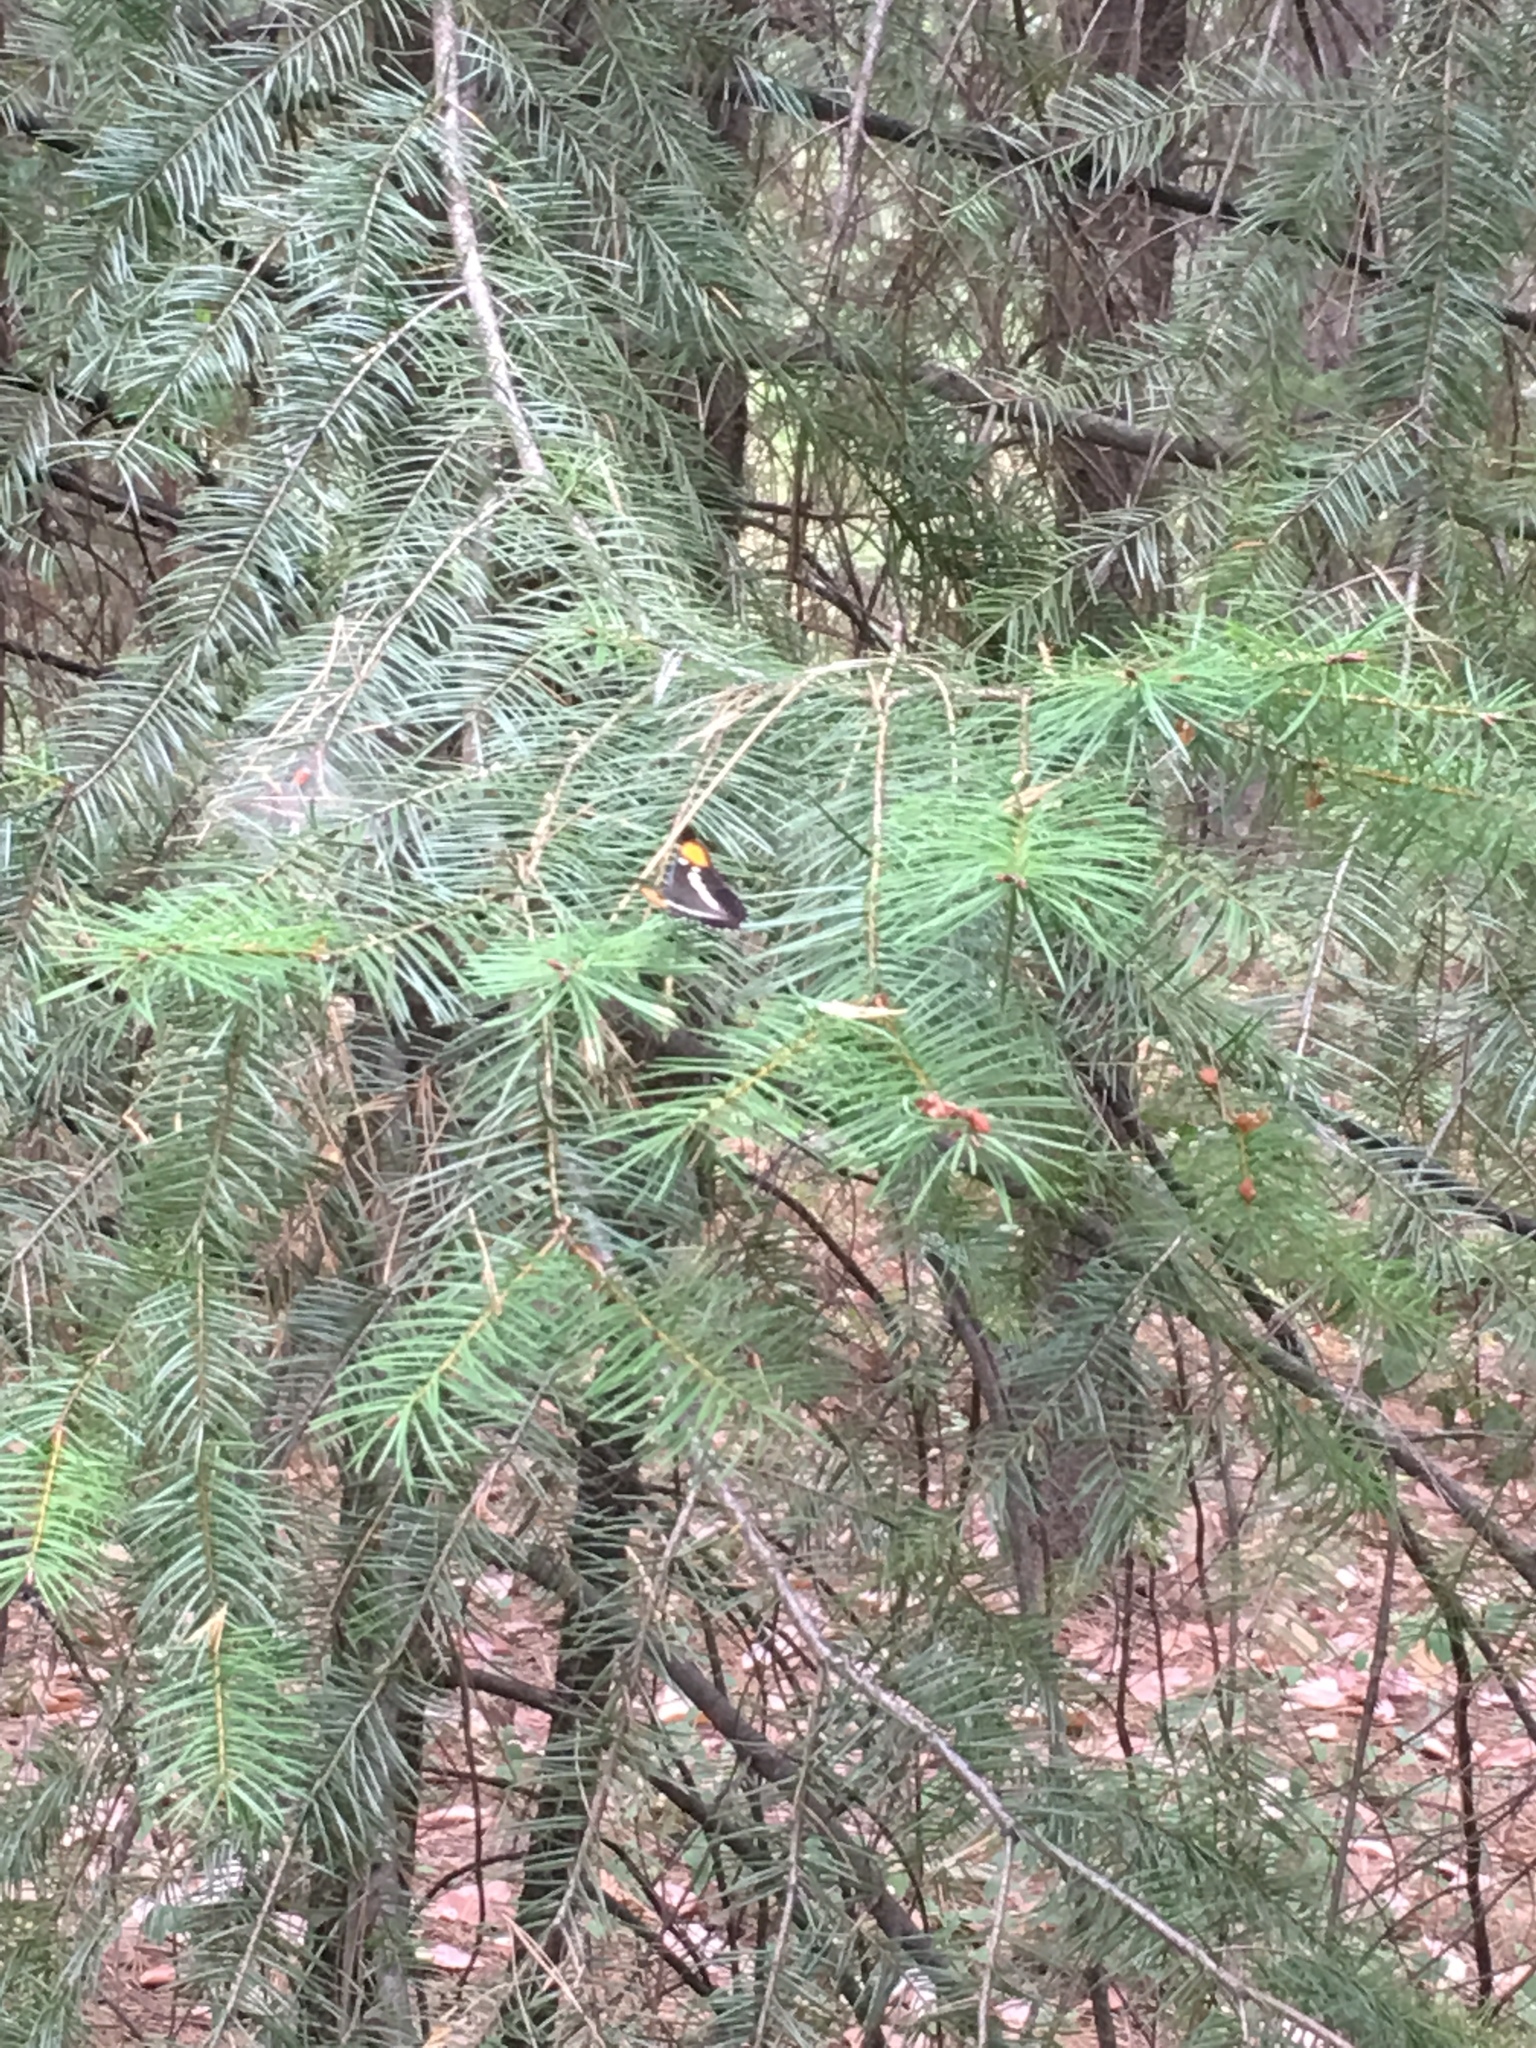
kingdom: Animalia
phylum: Arthropoda
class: Insecta
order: Lepidoptera
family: Nymphalidae
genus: Limenitis
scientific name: Limenitis bredowii
